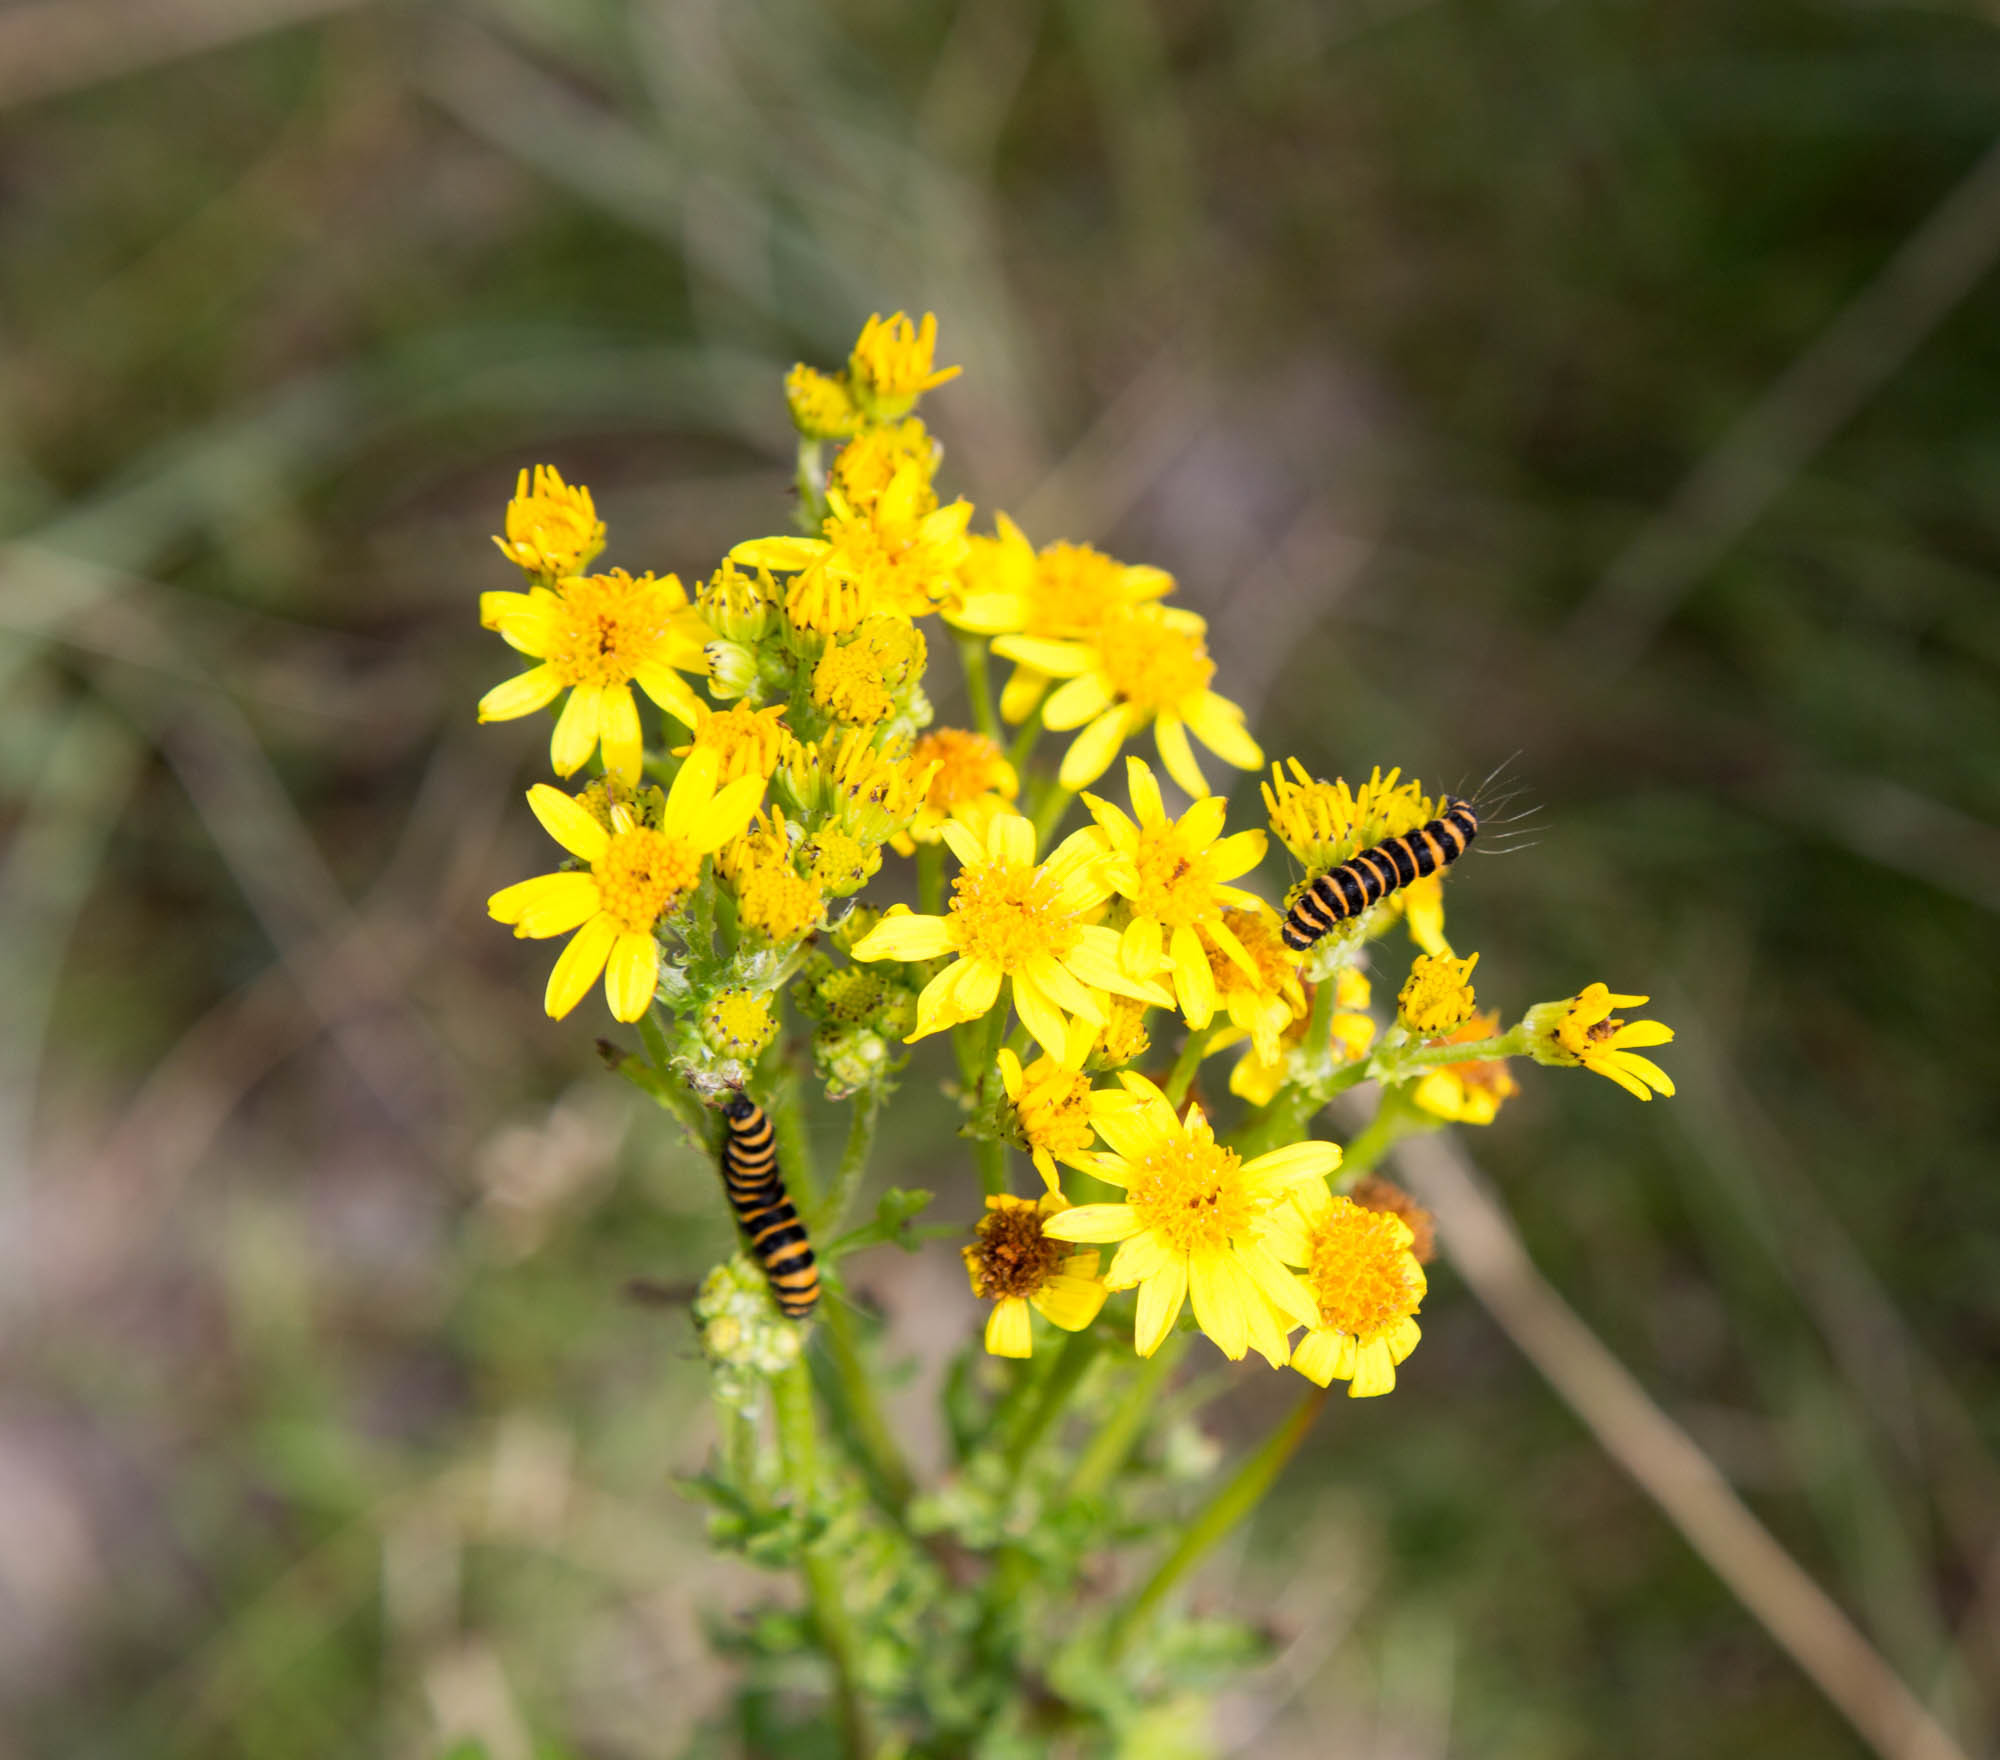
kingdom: Animalia
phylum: Arthropoda
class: Insecta
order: Lepidoptera
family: Erebidae
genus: Tyria
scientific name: Tyria jacobaeae
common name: Cinnabar
